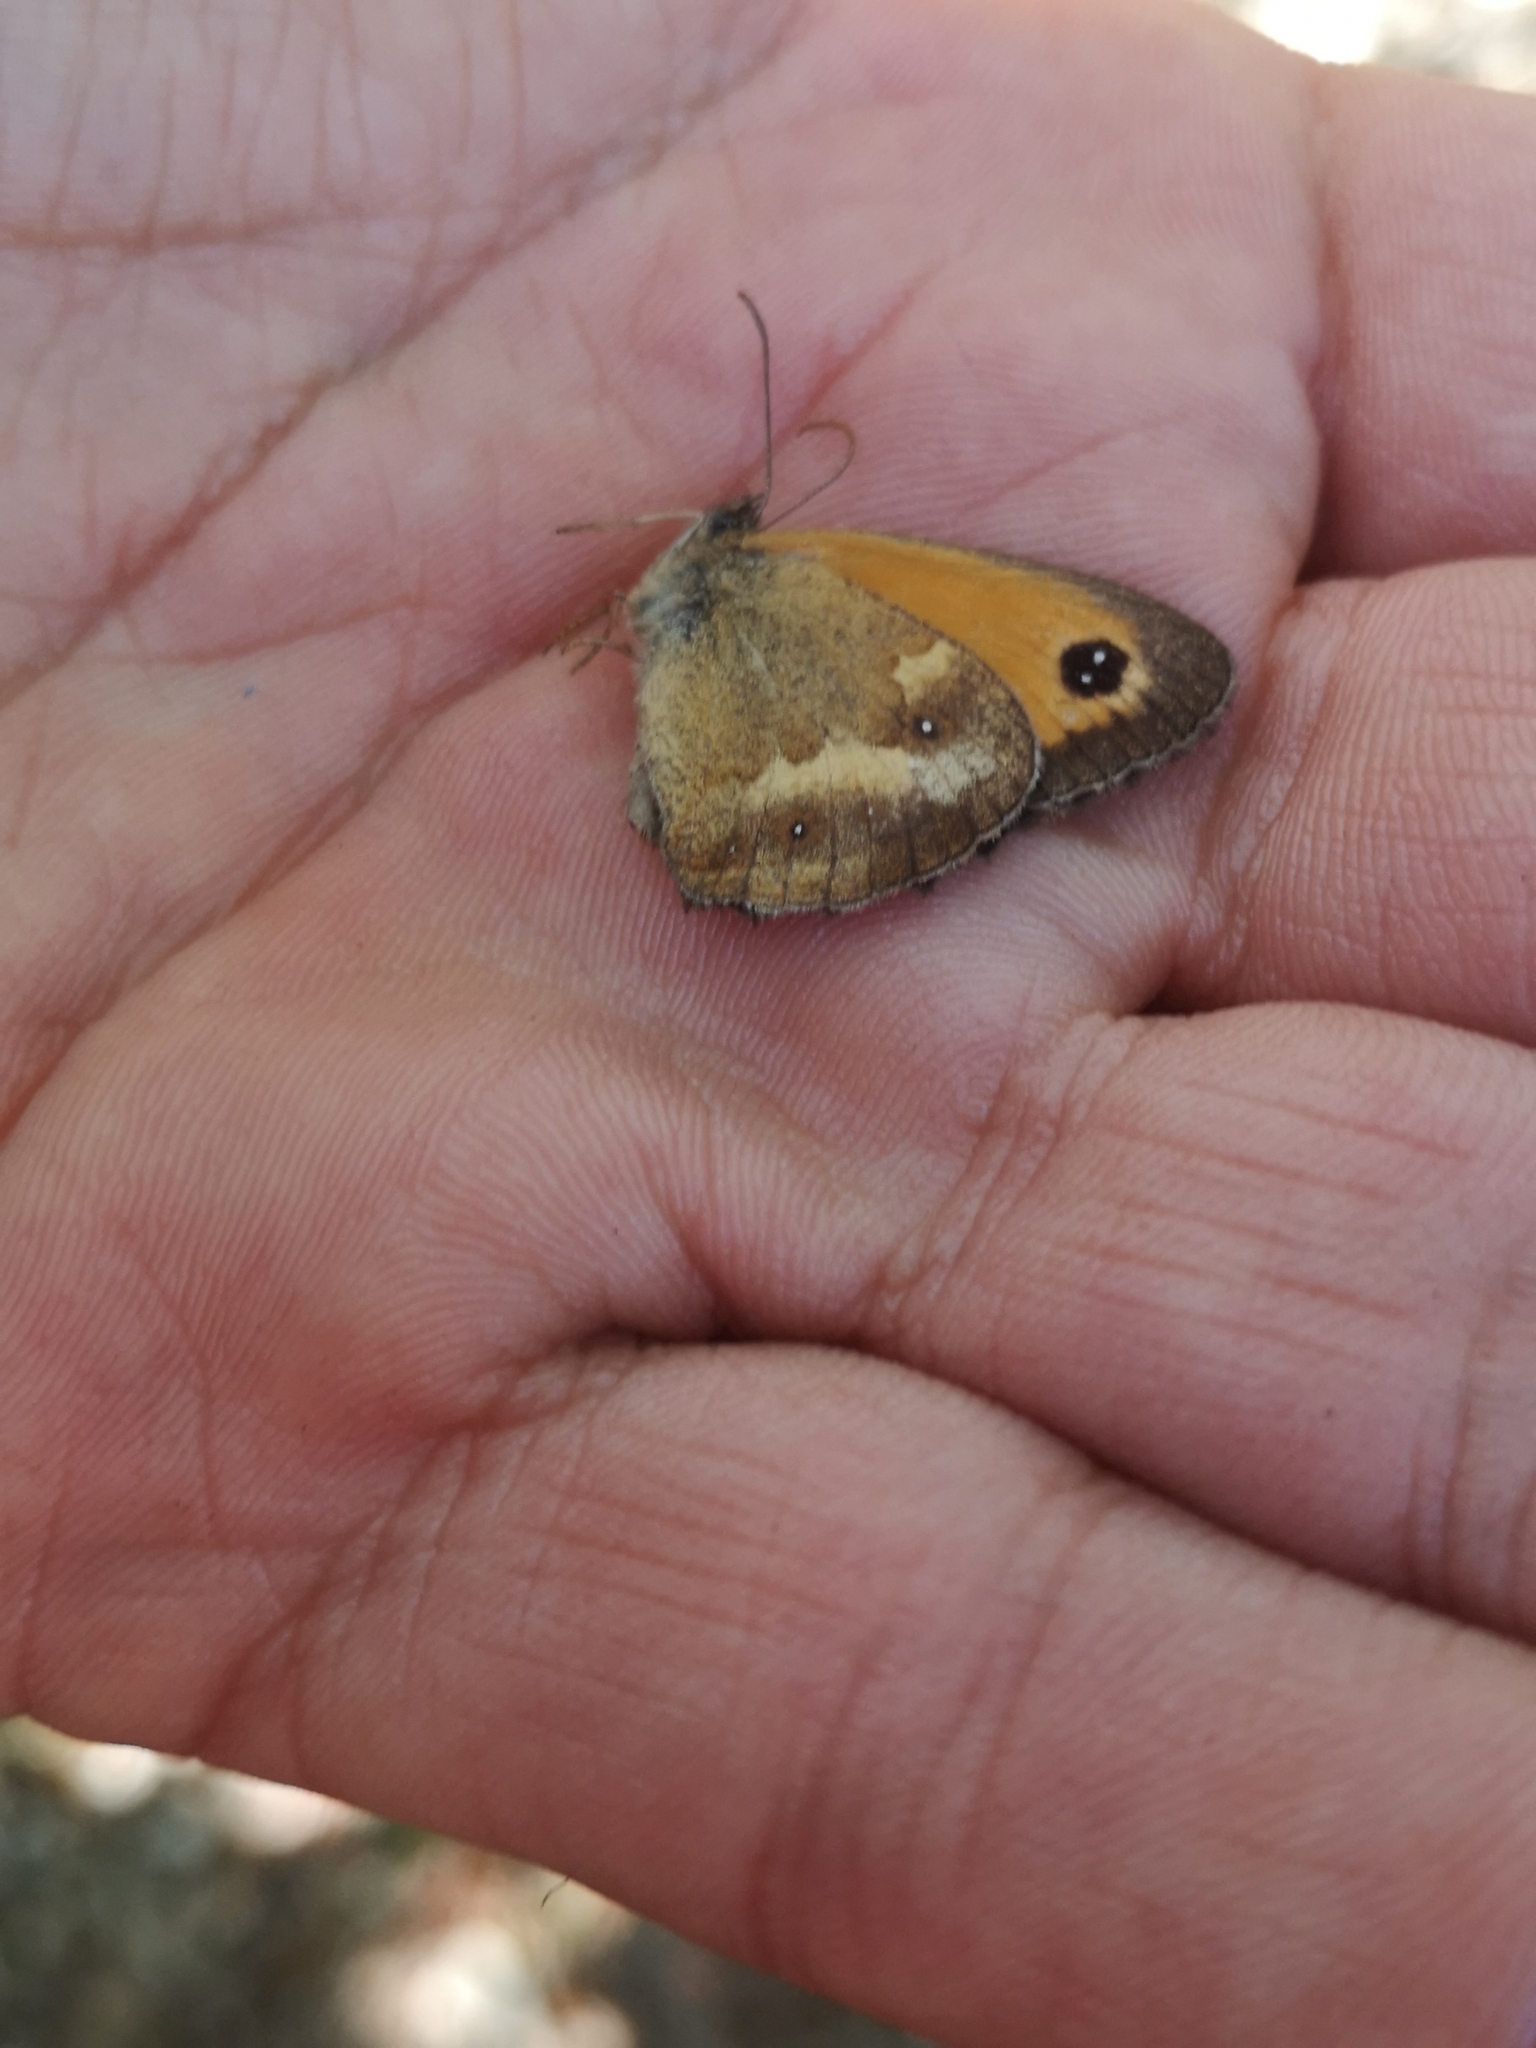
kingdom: Animalia
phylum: Arthropoda
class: Insecta
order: Lepidoptera
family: Nymphalidae
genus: Pyronia
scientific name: Pyronia tithonus
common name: Gatekeeper
